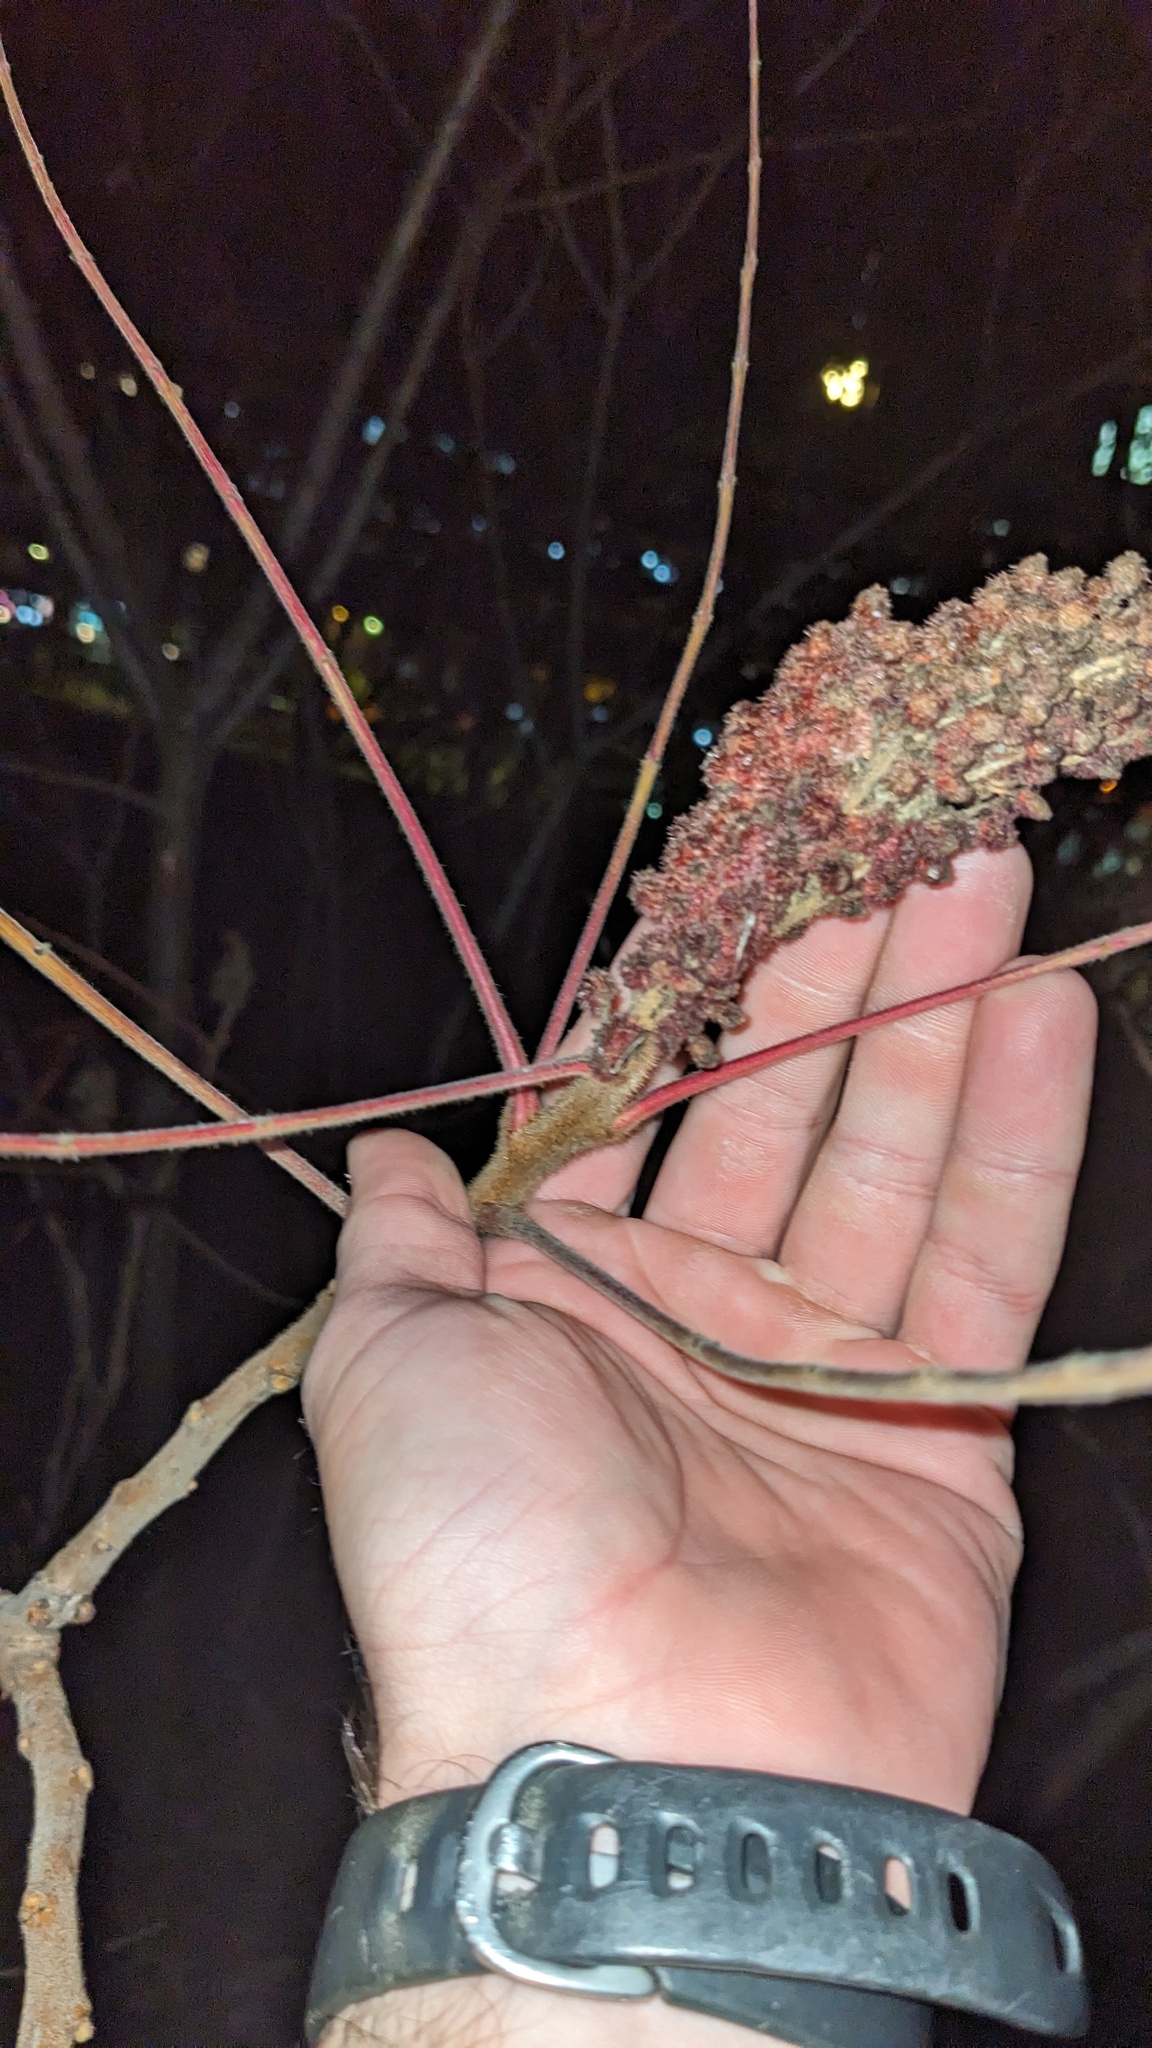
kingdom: Plantae
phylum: Tracheophyta
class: Magnoliopsida
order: Sapindales
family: Anacardiaceae
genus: Rhus
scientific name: Rhus typhina
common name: Staghorn sumac
